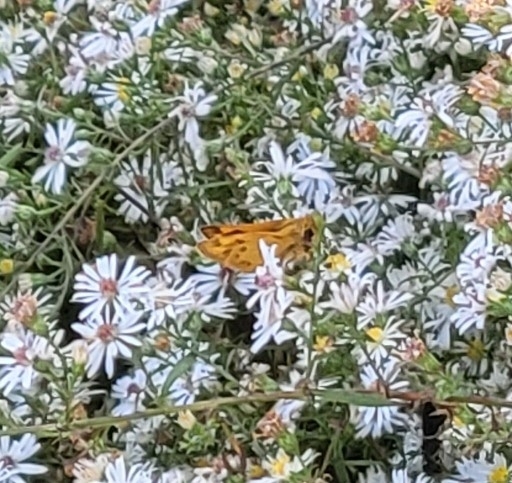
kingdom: Animalia
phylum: Arthropoda
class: Insecta
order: Lepidoptera
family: Hesperiidae
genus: Hylephila
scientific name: Hylephila phyleus
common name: Fiery skipper
